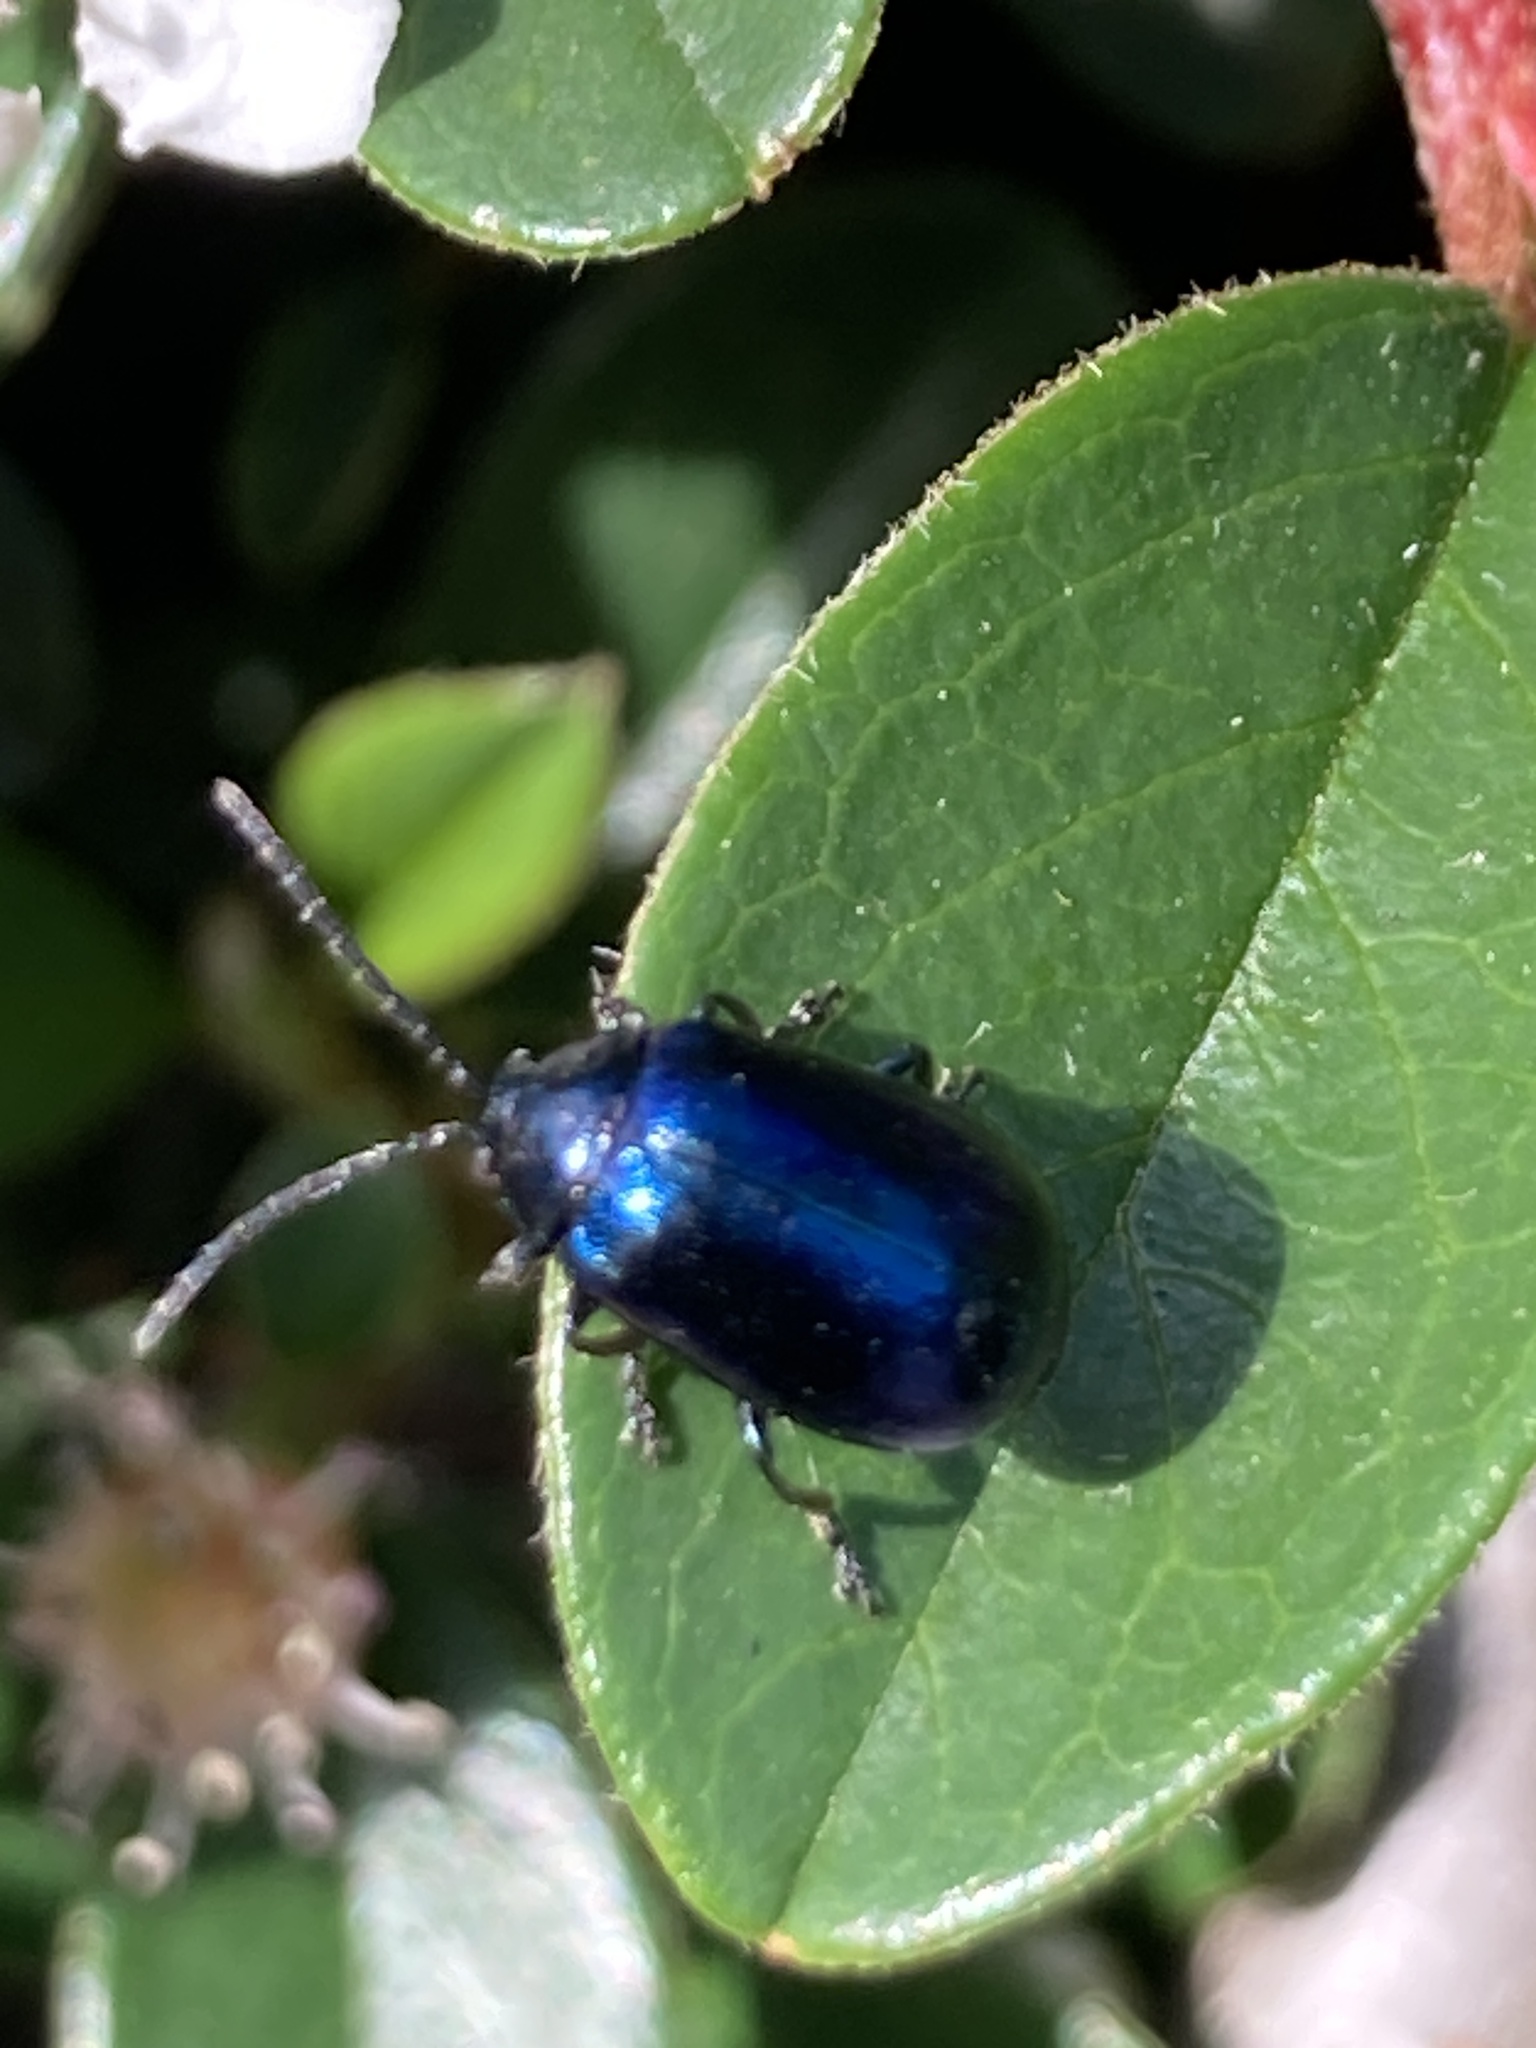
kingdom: Animalia
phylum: Arthropoda
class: Insecta
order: Coleoptera
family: Chrysomelidae
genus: Agelastica
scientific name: Agelastica alni
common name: Alder leaf beetle
